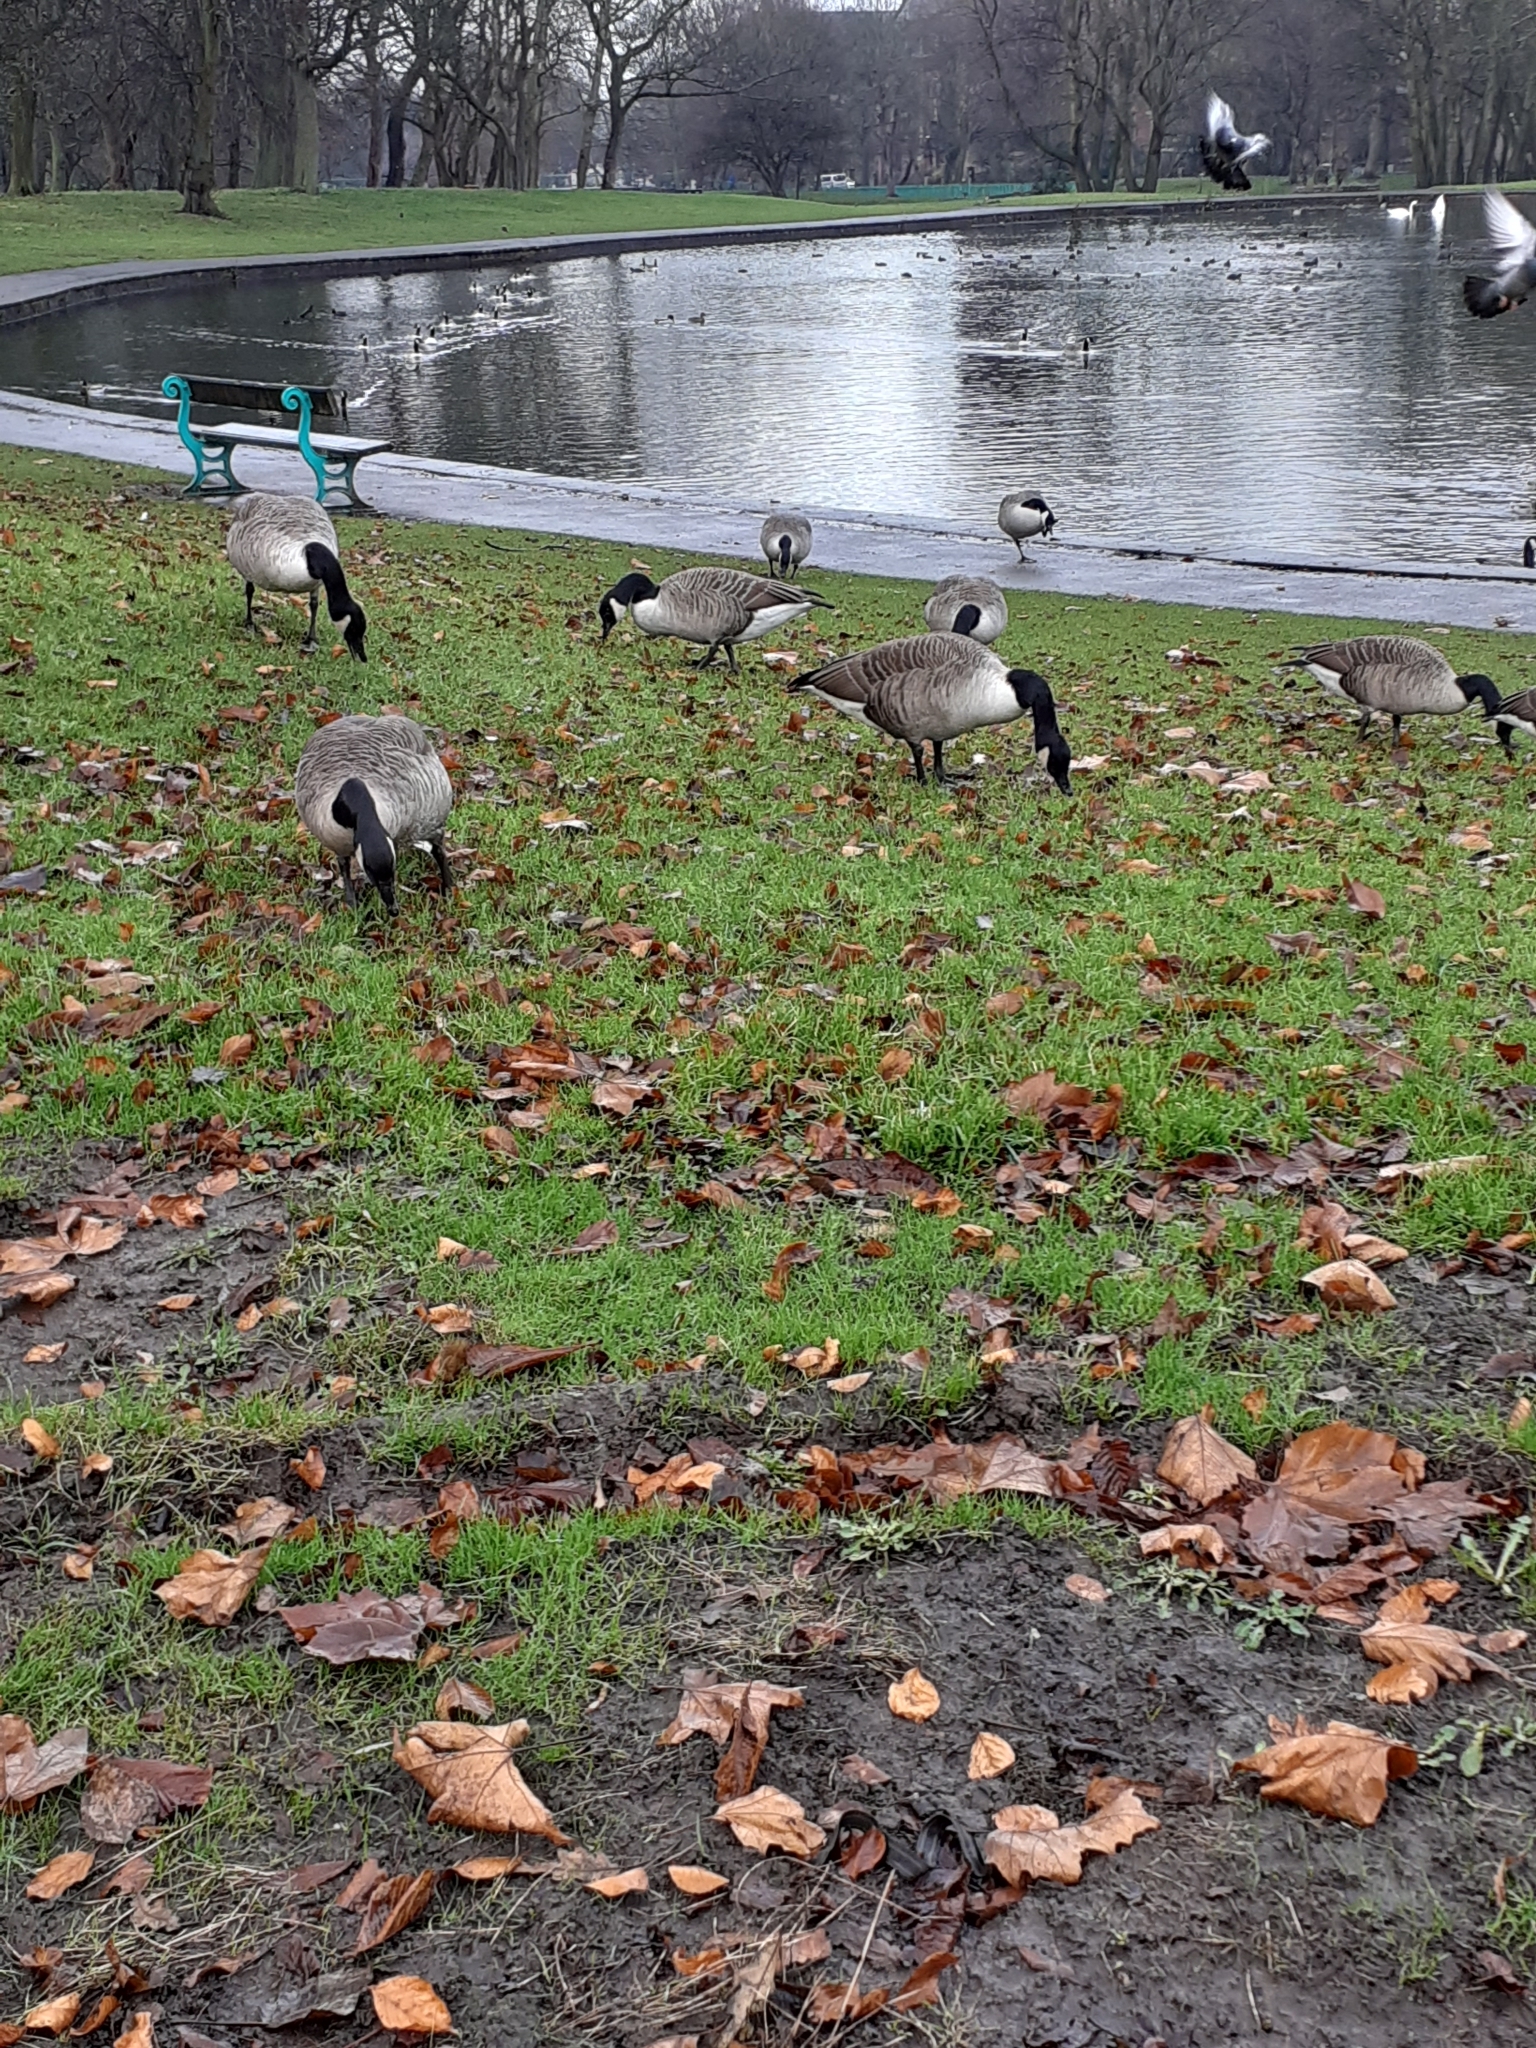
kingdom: Animalia
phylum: Chordata
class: Aves
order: Anseriformes
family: Anatidae
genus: Branta
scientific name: Branta canadensis
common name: Canada goose
